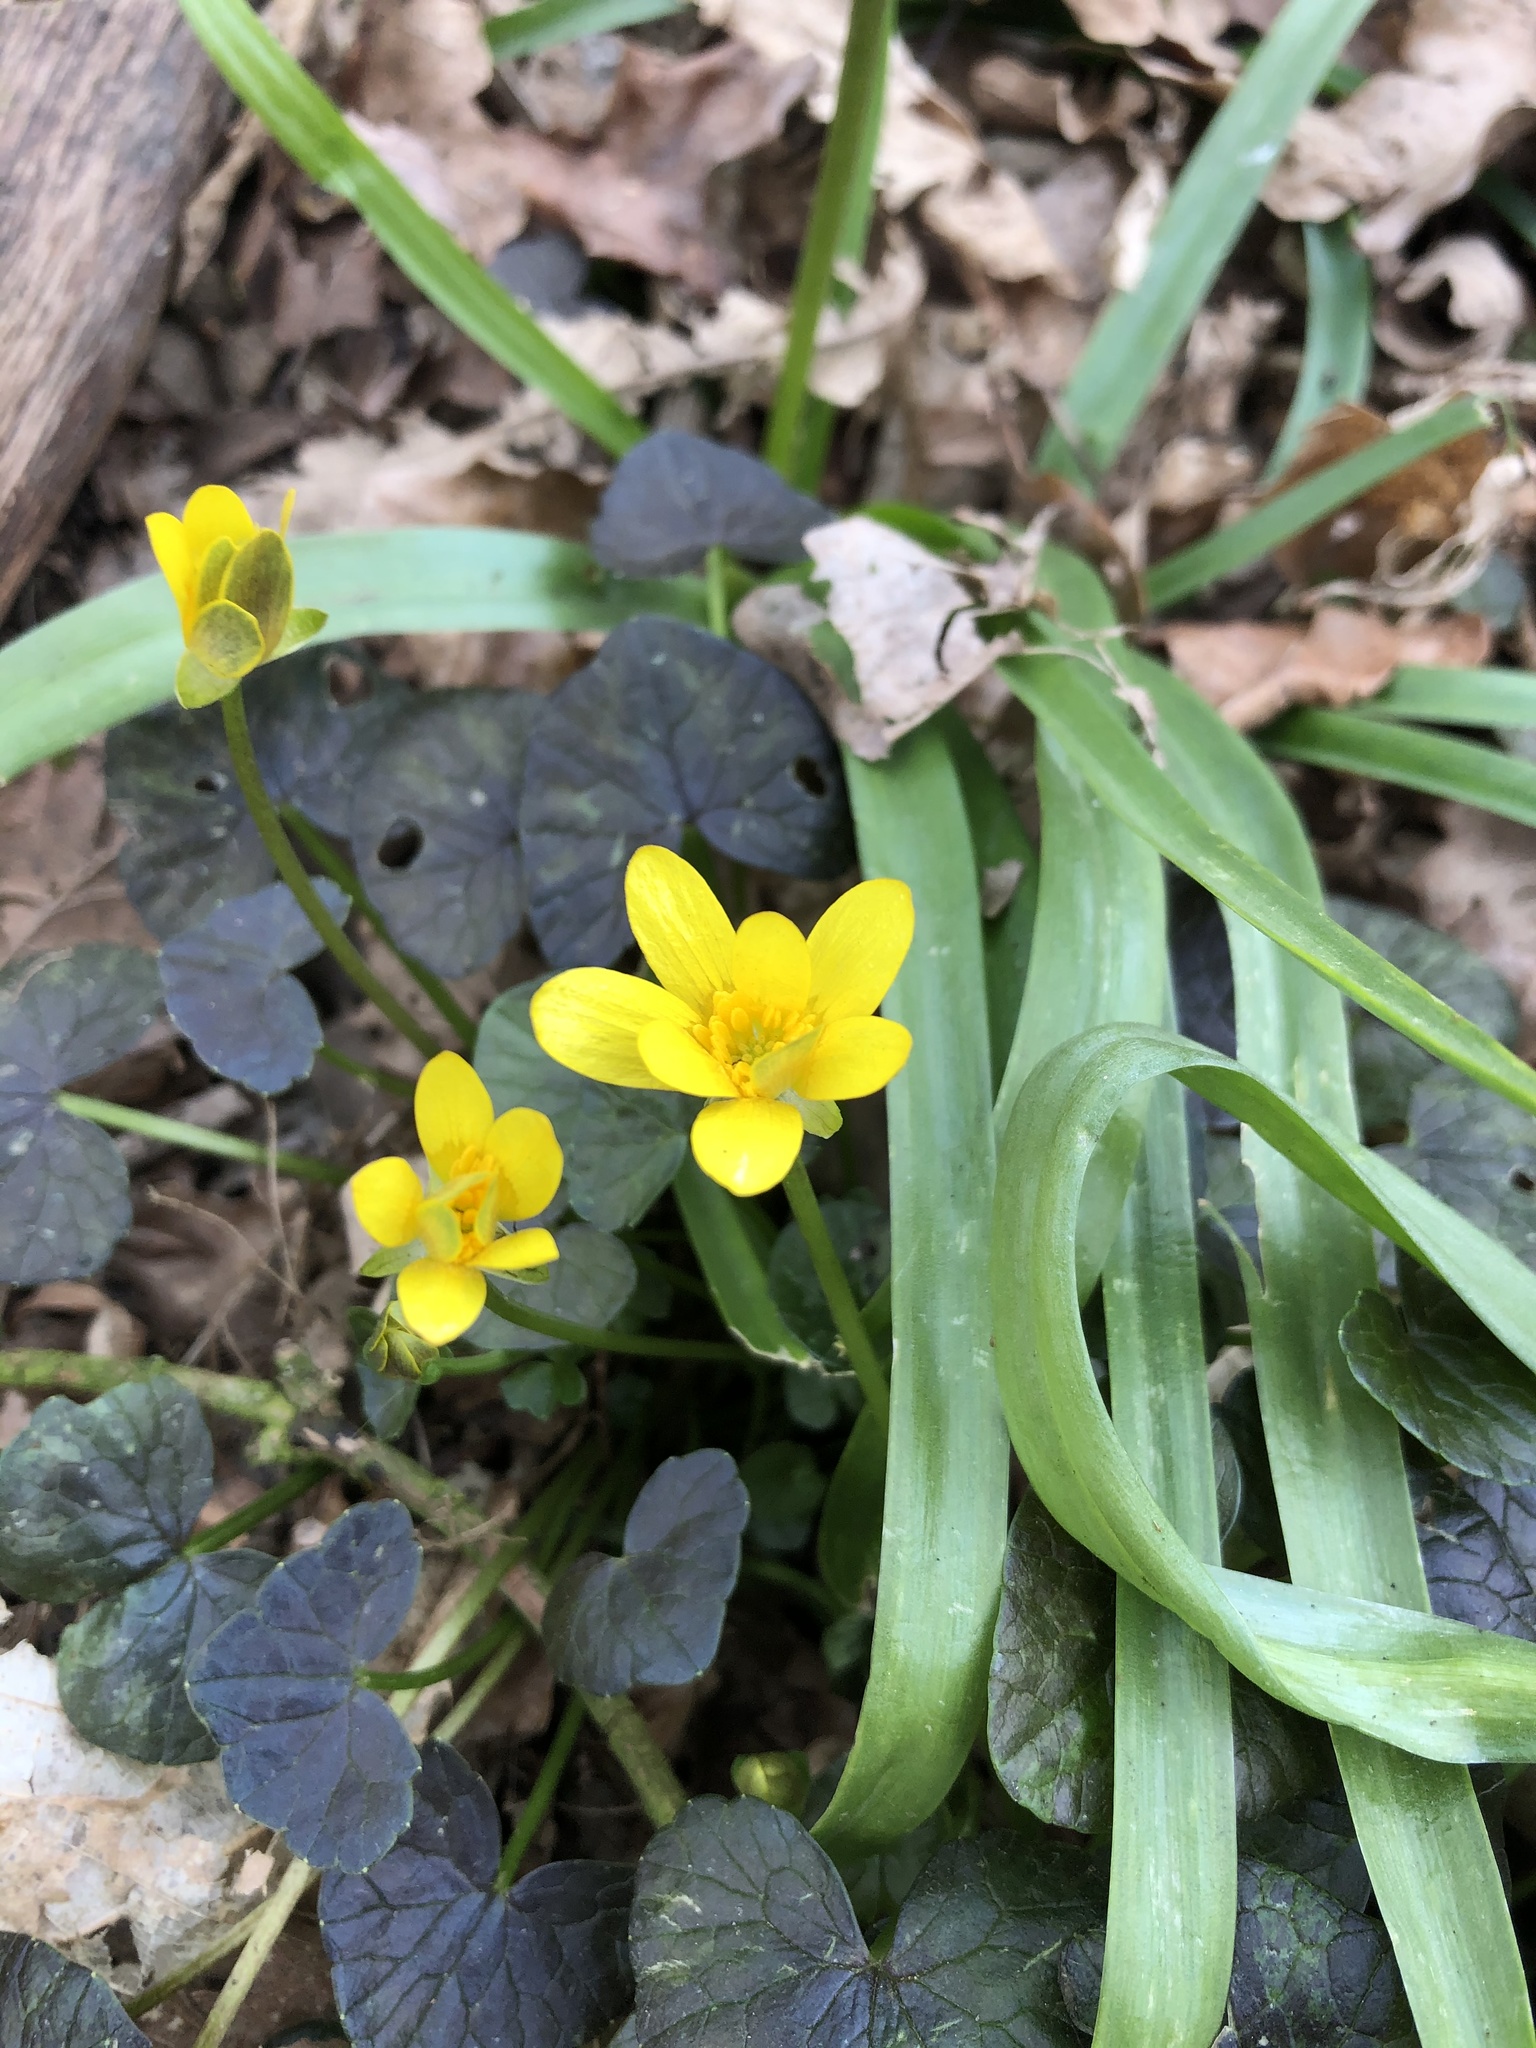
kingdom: Plantae
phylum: Tracheophyta
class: Magnoliopsida
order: Ranunculales
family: Ranunculaceae
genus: Ficaria
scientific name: Ficaria verna
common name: Lesser celandine
